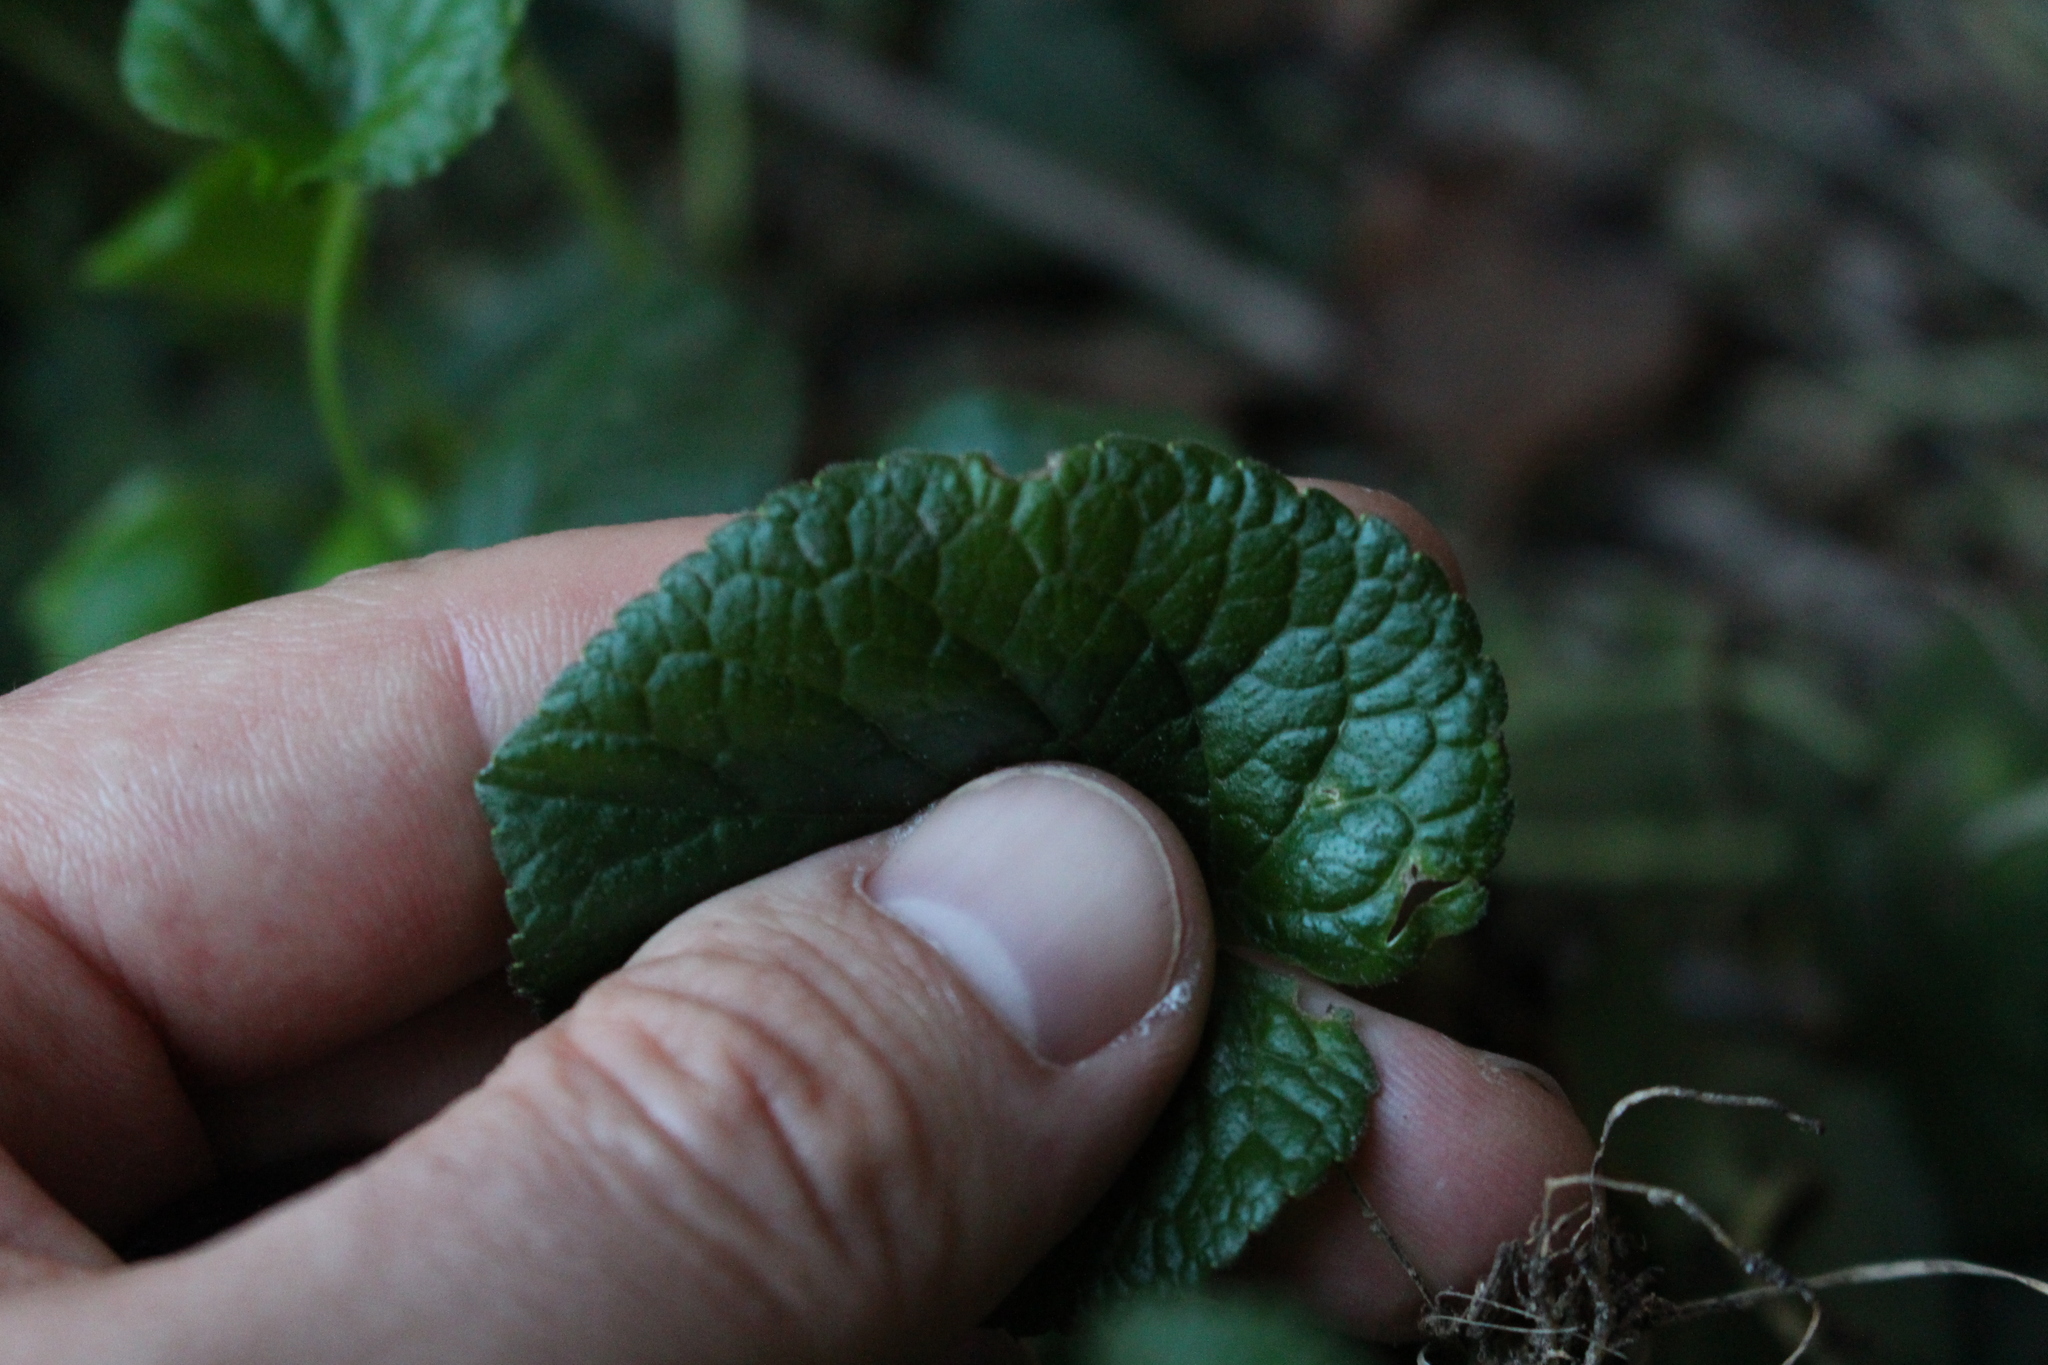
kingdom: Plantae
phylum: Tracheophyta
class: Magnoliopsida
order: Malpighiales
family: Violaceae
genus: Viola
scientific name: Viola odorata
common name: Sweet violet
